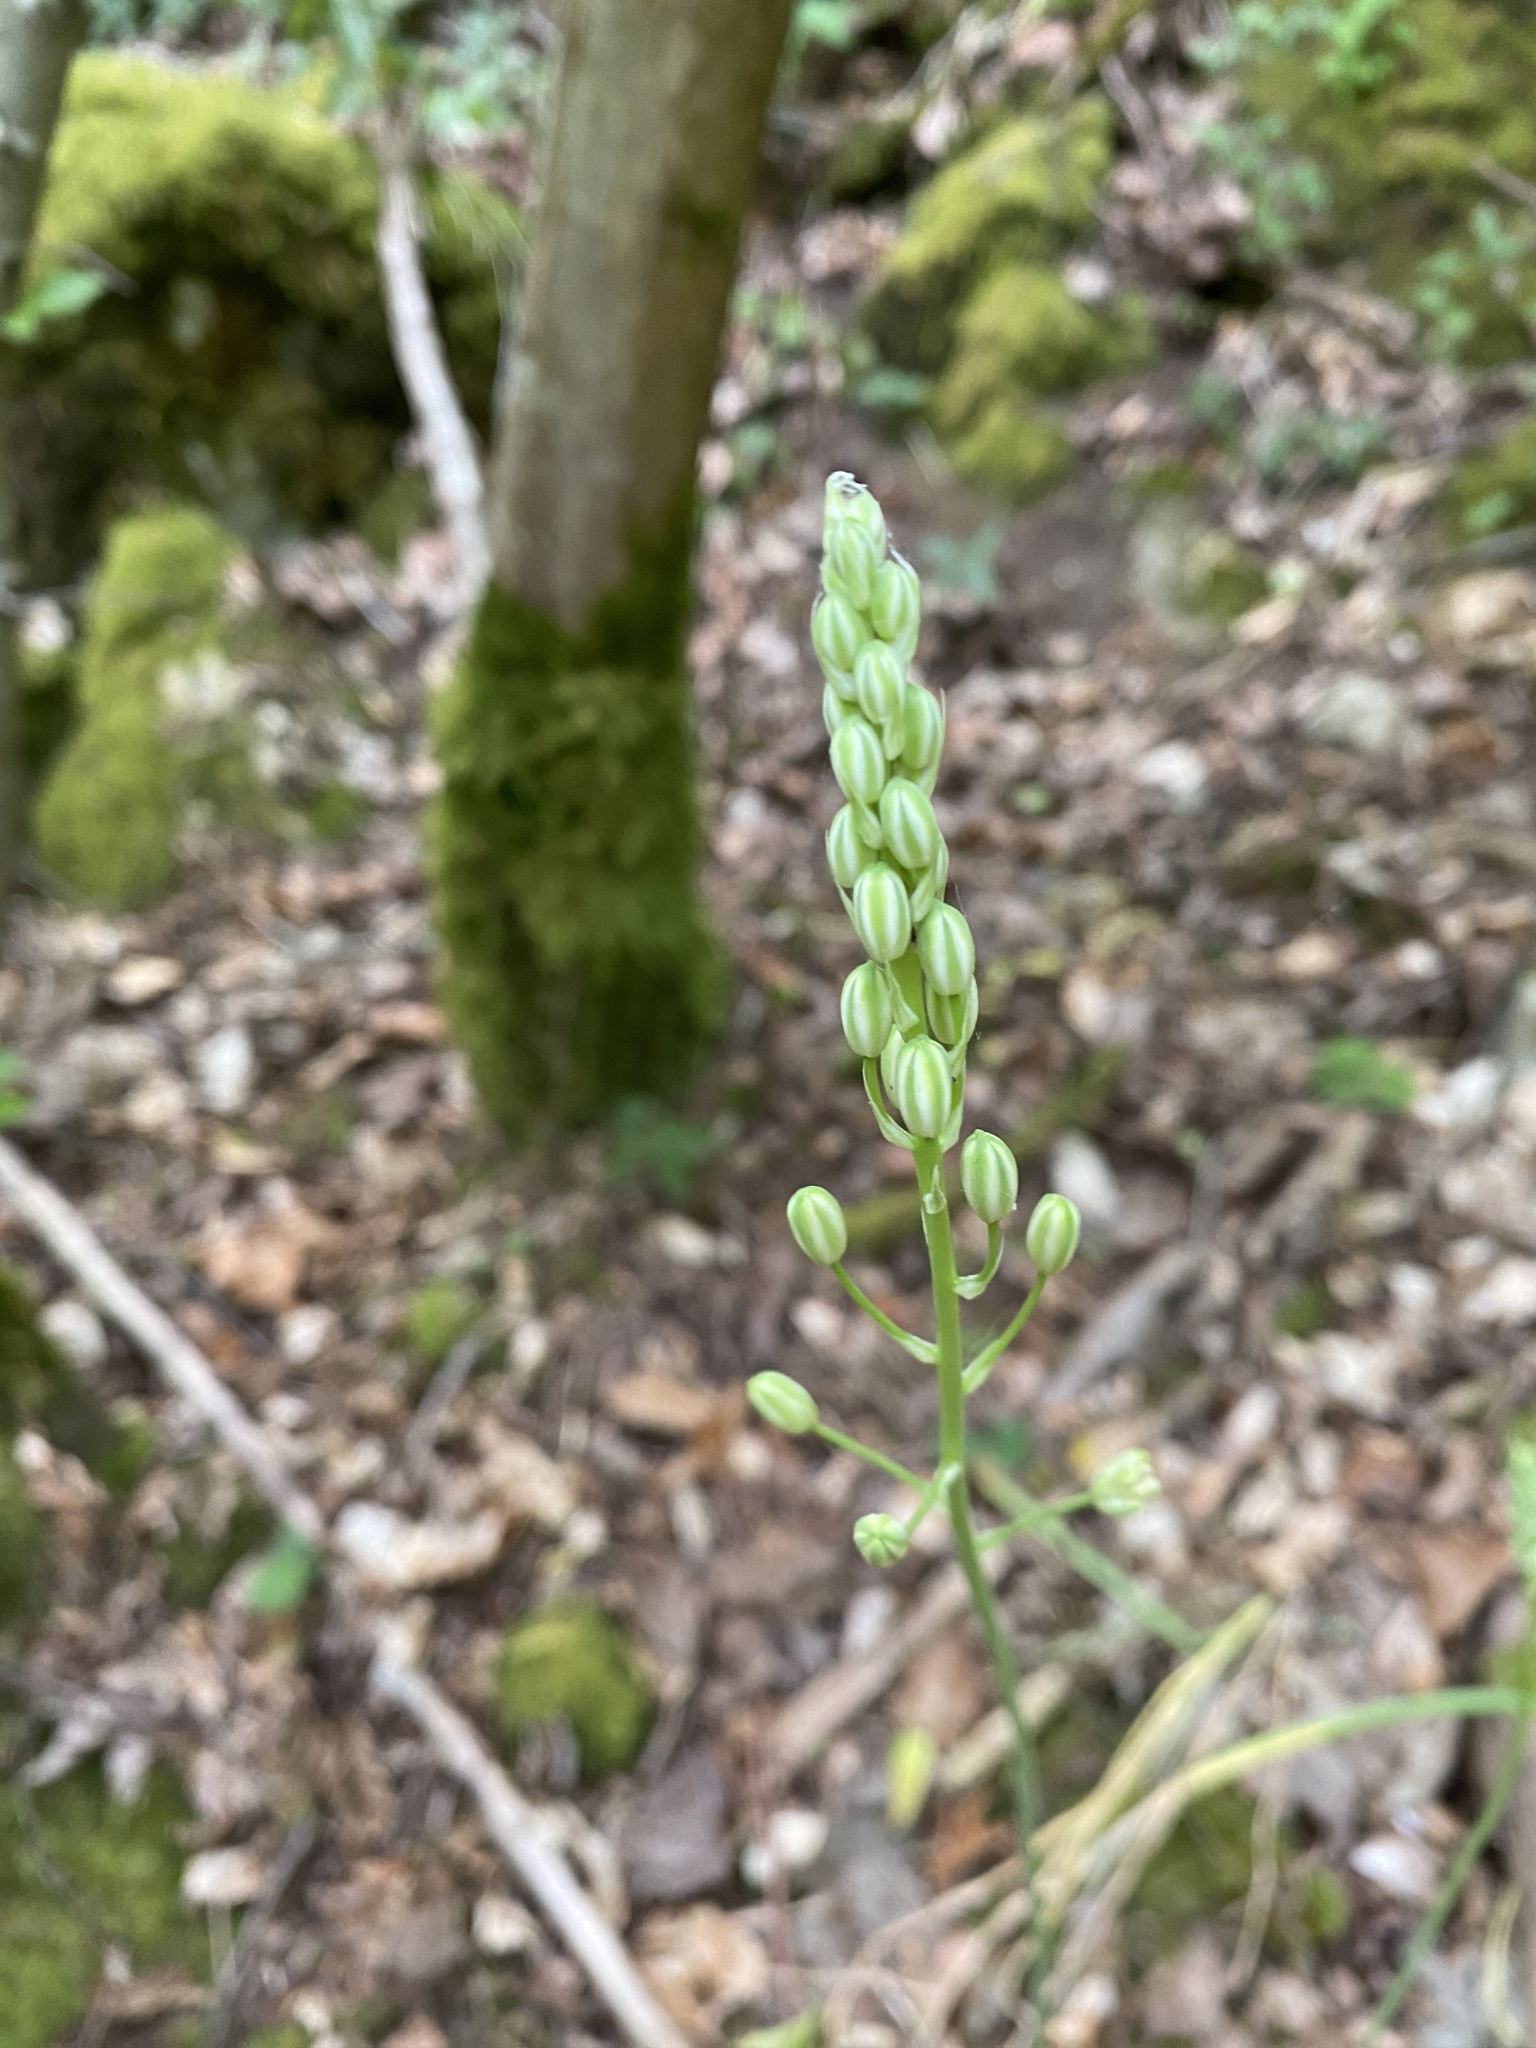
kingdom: Plantae
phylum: Tracheophyta
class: Liliopsida
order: Asparagales
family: Asparagaceae
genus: Ornithogalum
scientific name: Ornithogalum pyrenaicum
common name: Spiked star-of-bethlehem
